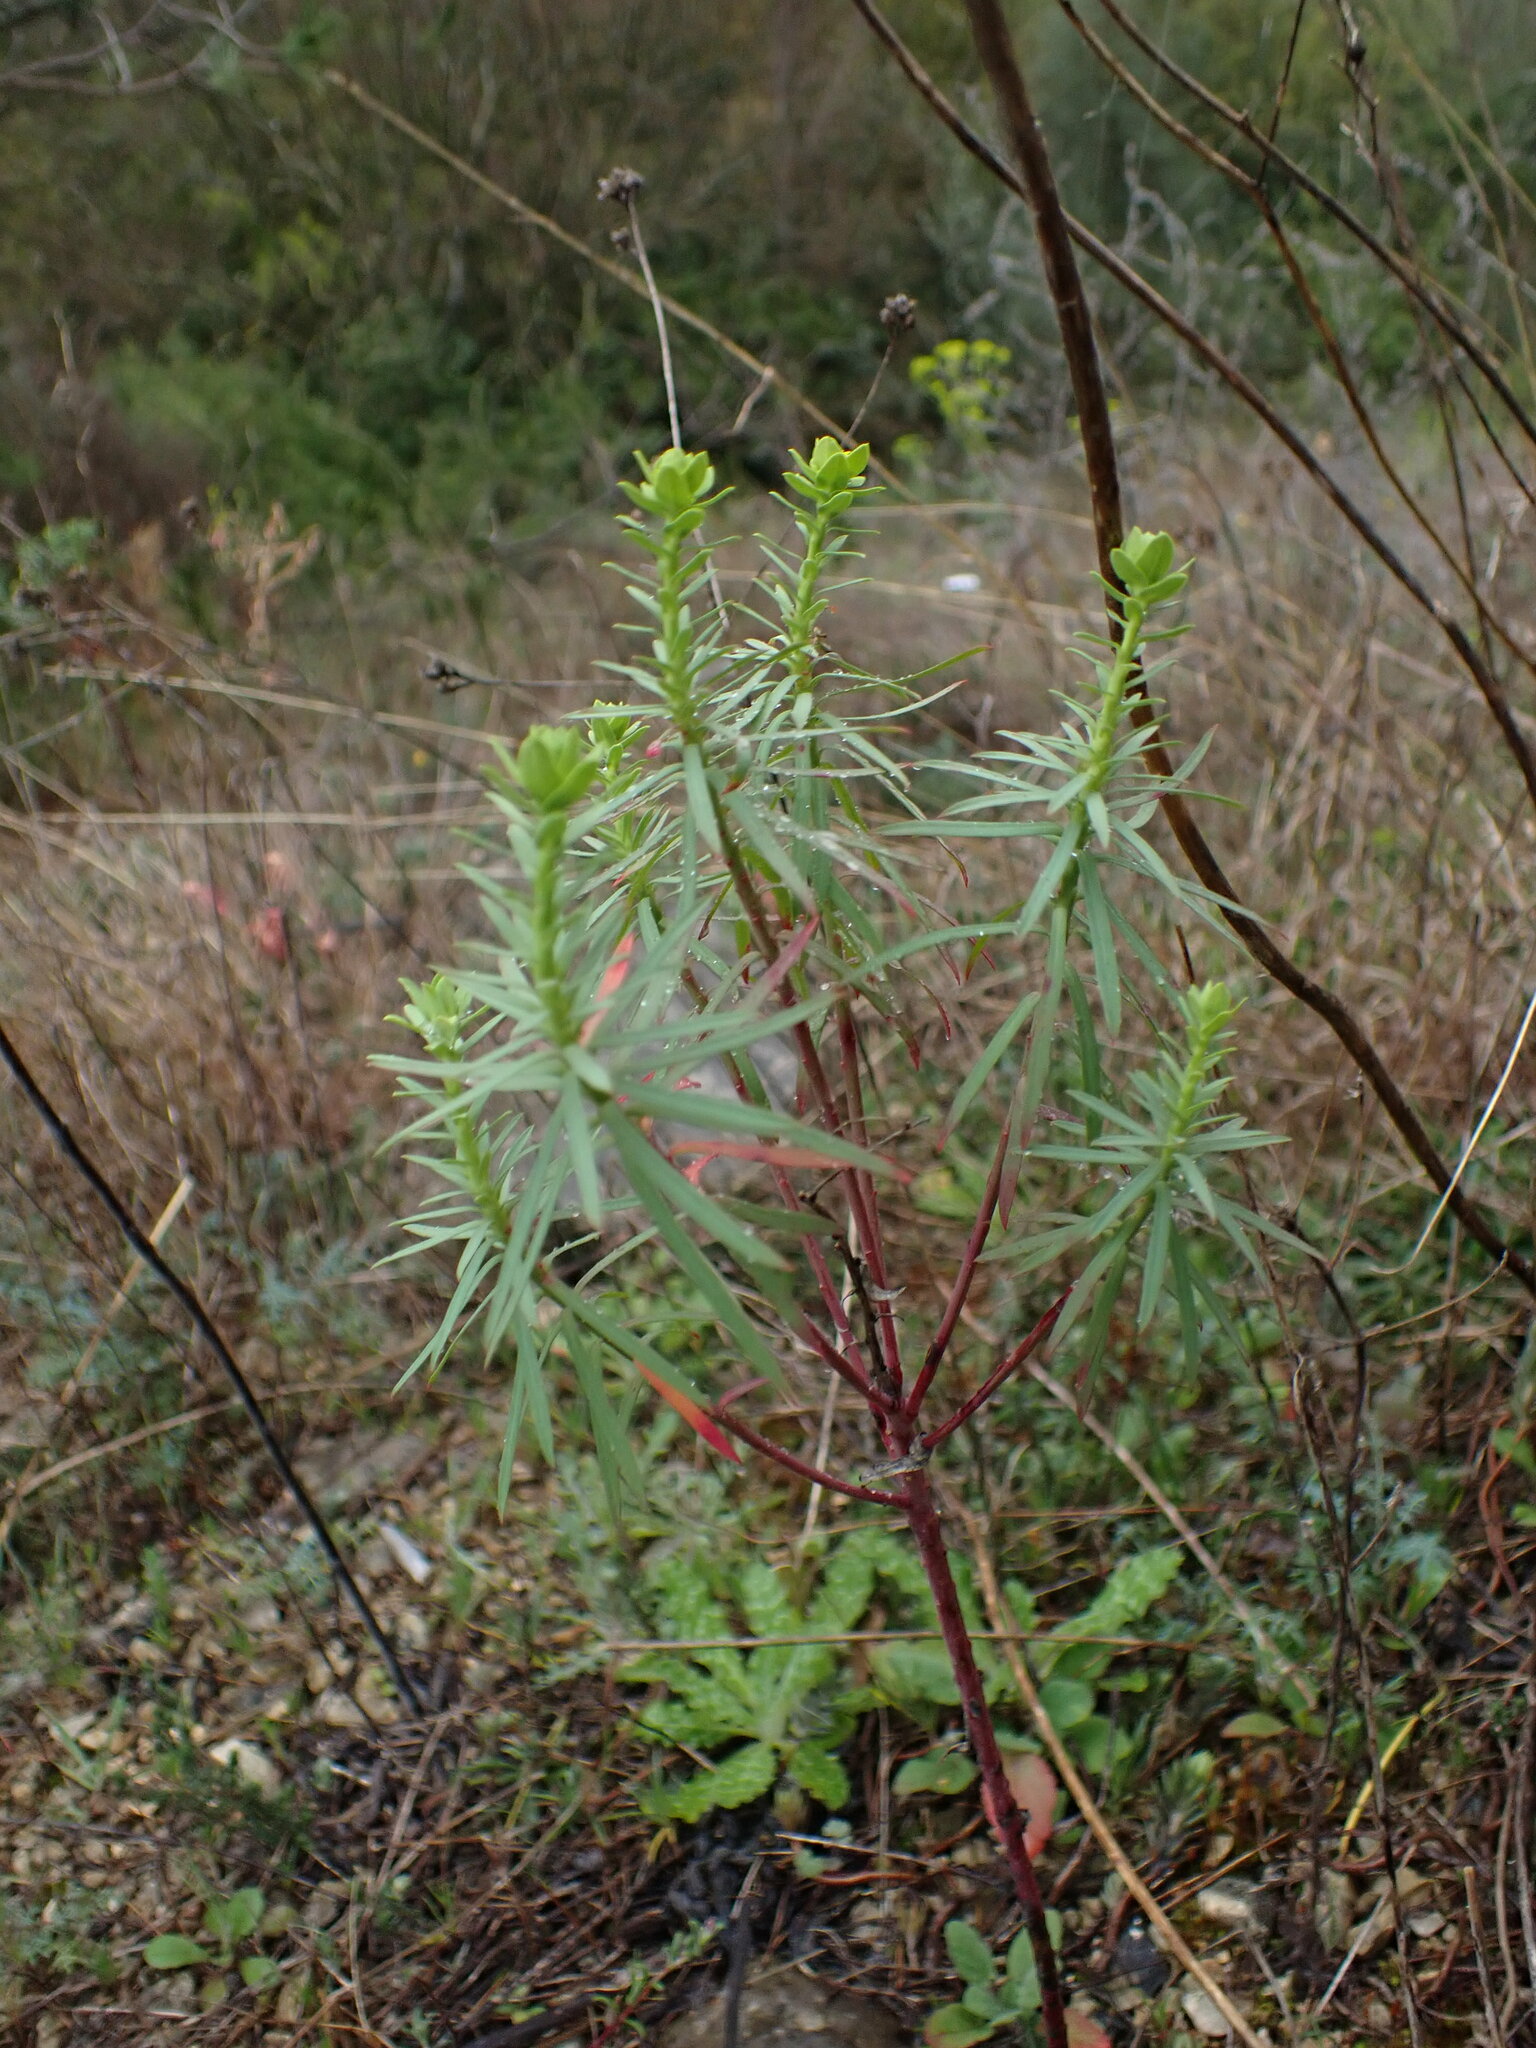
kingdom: Plantae
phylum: Tracheophyta
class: Magnoliopsida
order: Malpighiales
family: Euphorbiaceae
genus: Euphorbia
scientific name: Euphorbia segetalis
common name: Corn spurge
